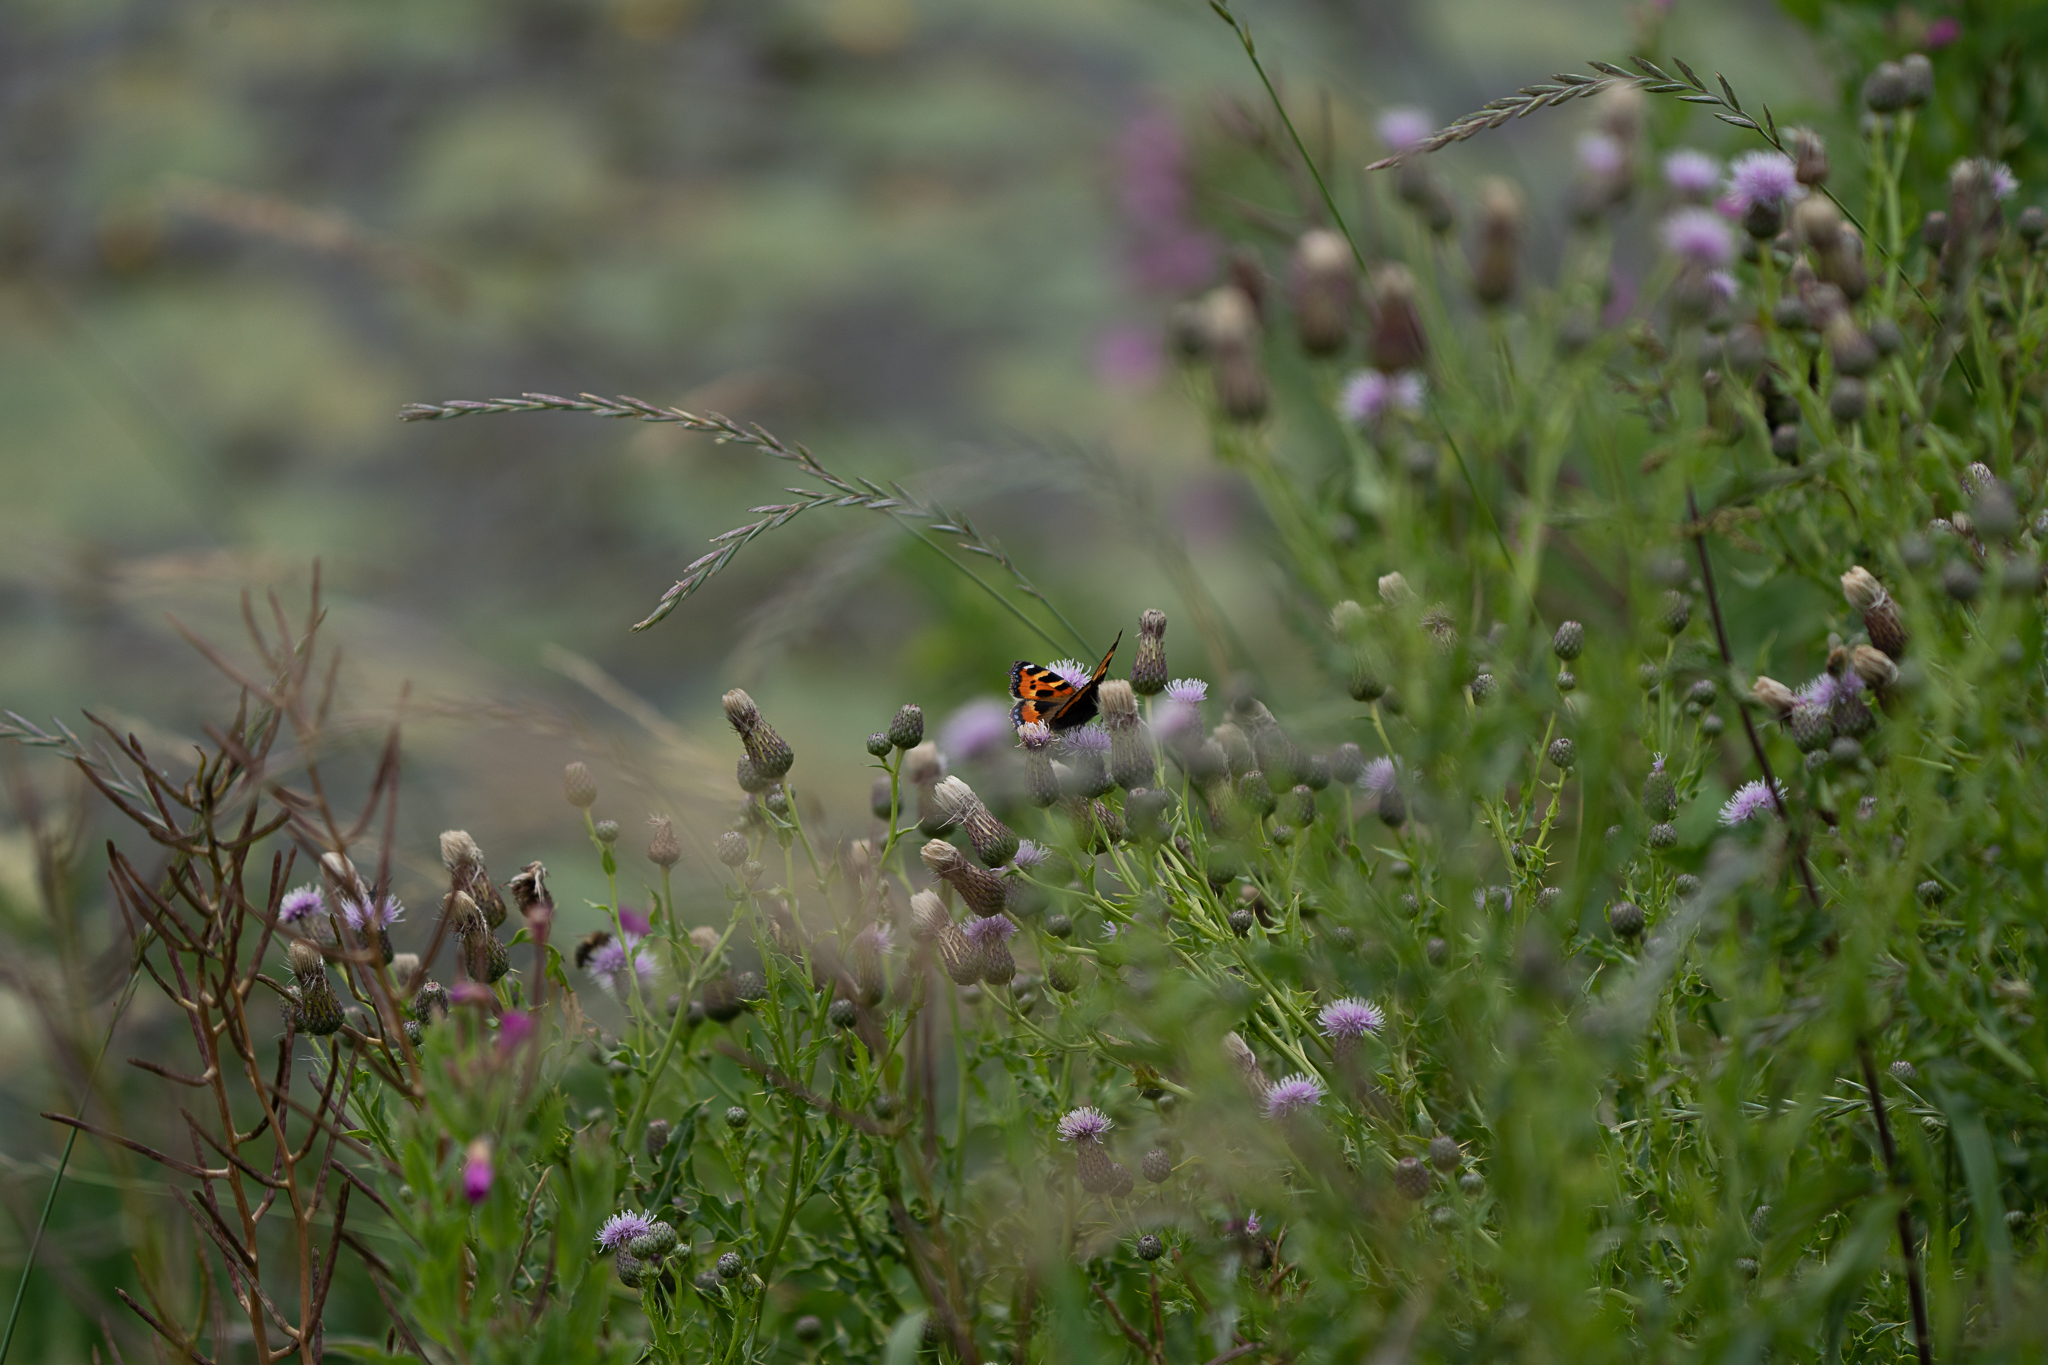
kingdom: Animalia
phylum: Arthropoda
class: Insecta
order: Lepidoptera
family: Nymphalidae
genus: Aglais
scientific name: Aglais urticae
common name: Small tortoiseshell
